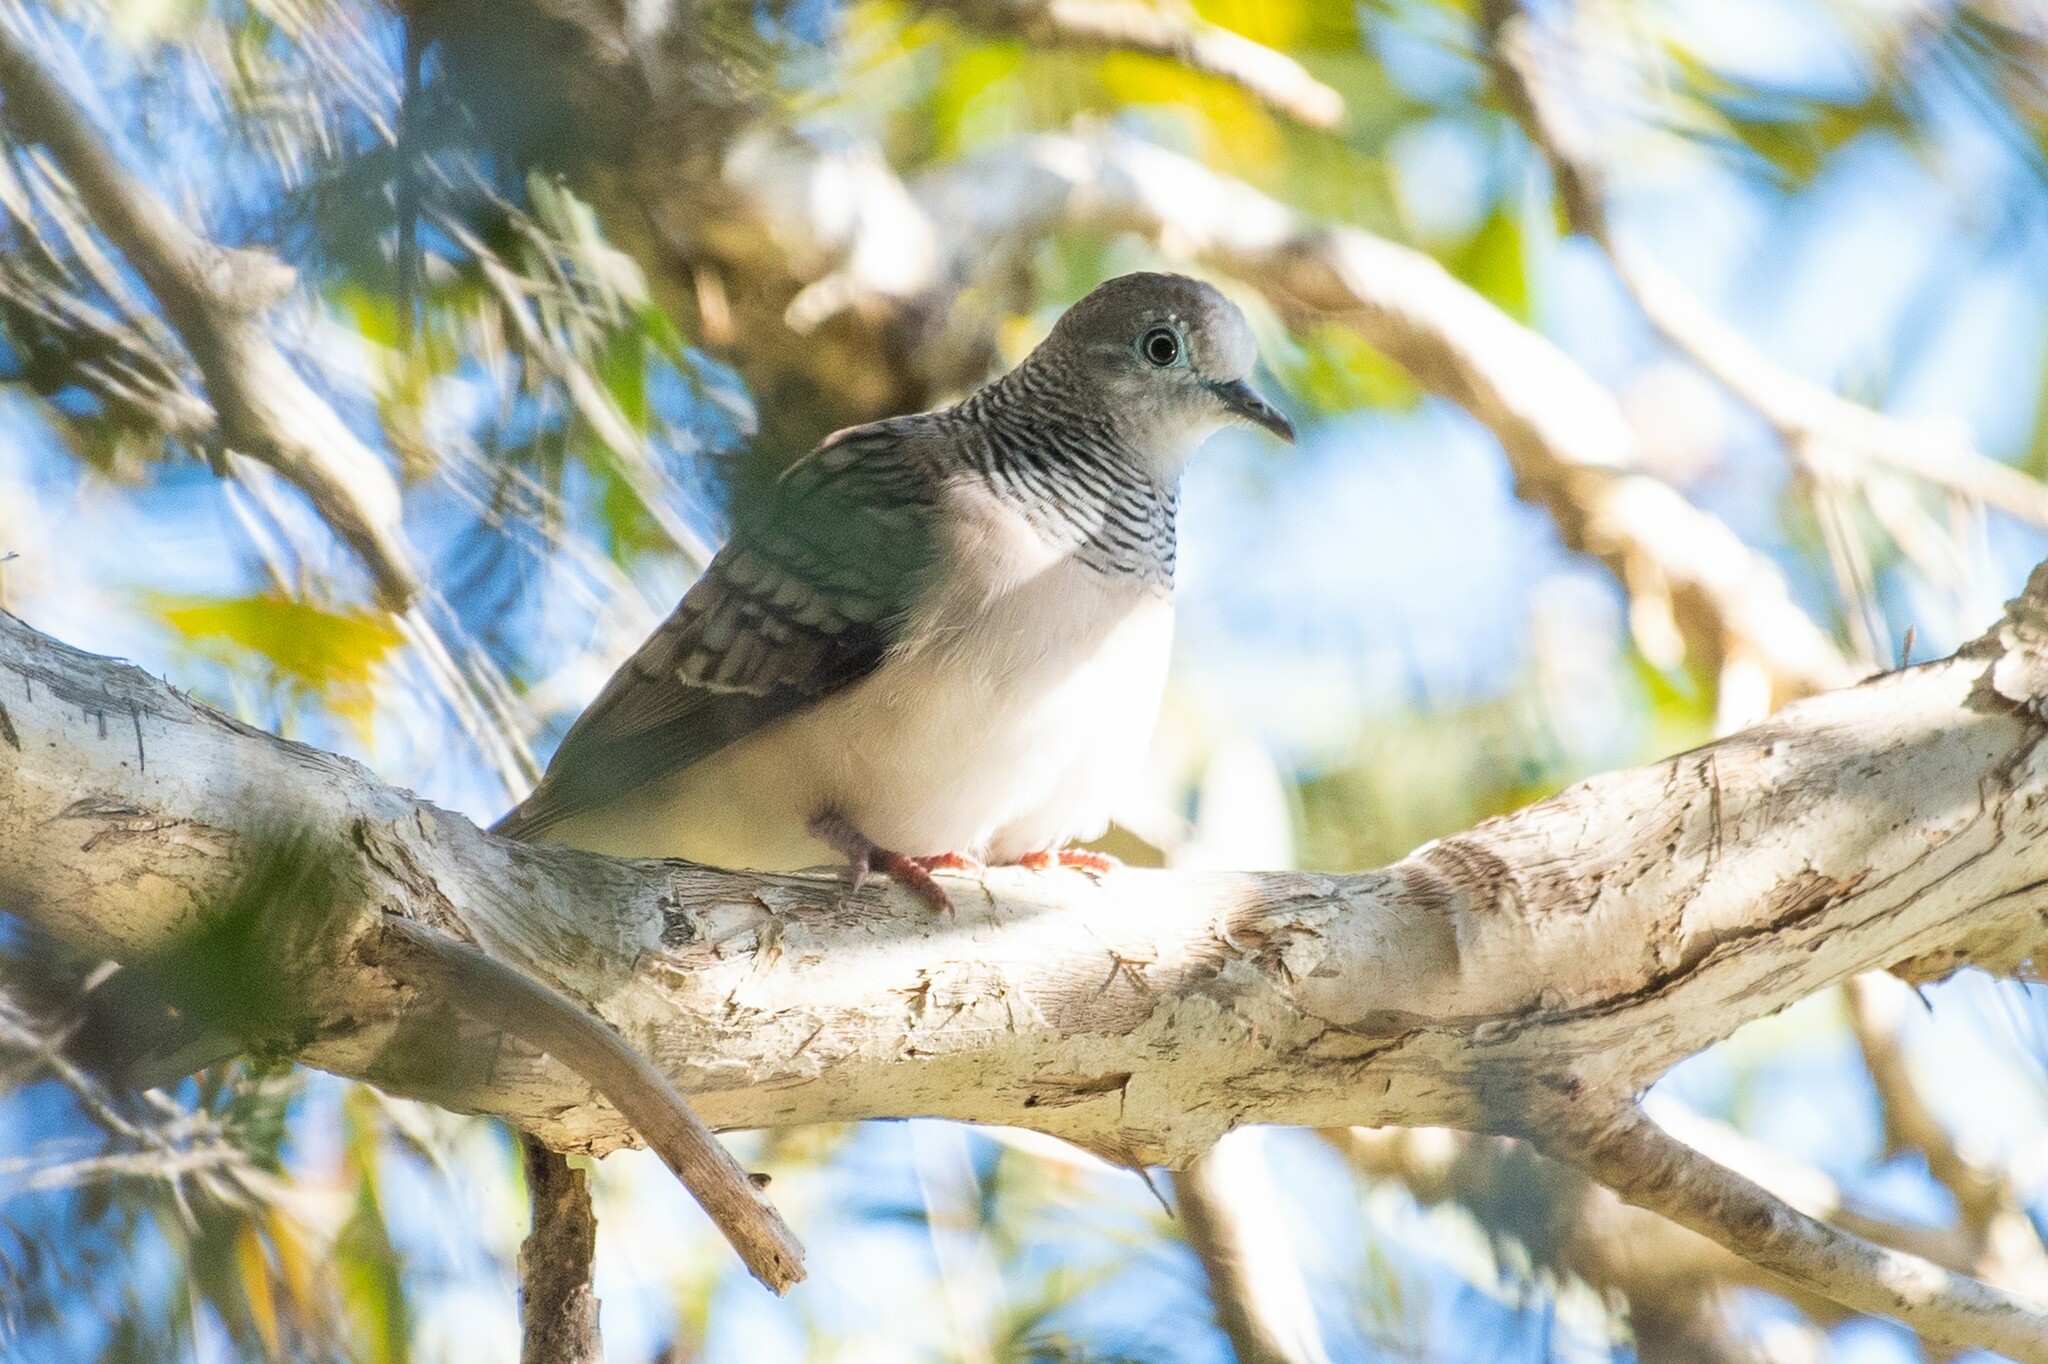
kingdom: Animalia
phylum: Chordata
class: Aves
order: Columbiformes
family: Columbidae
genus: Geopelia
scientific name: Geopelia placida
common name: Peaceful dove
